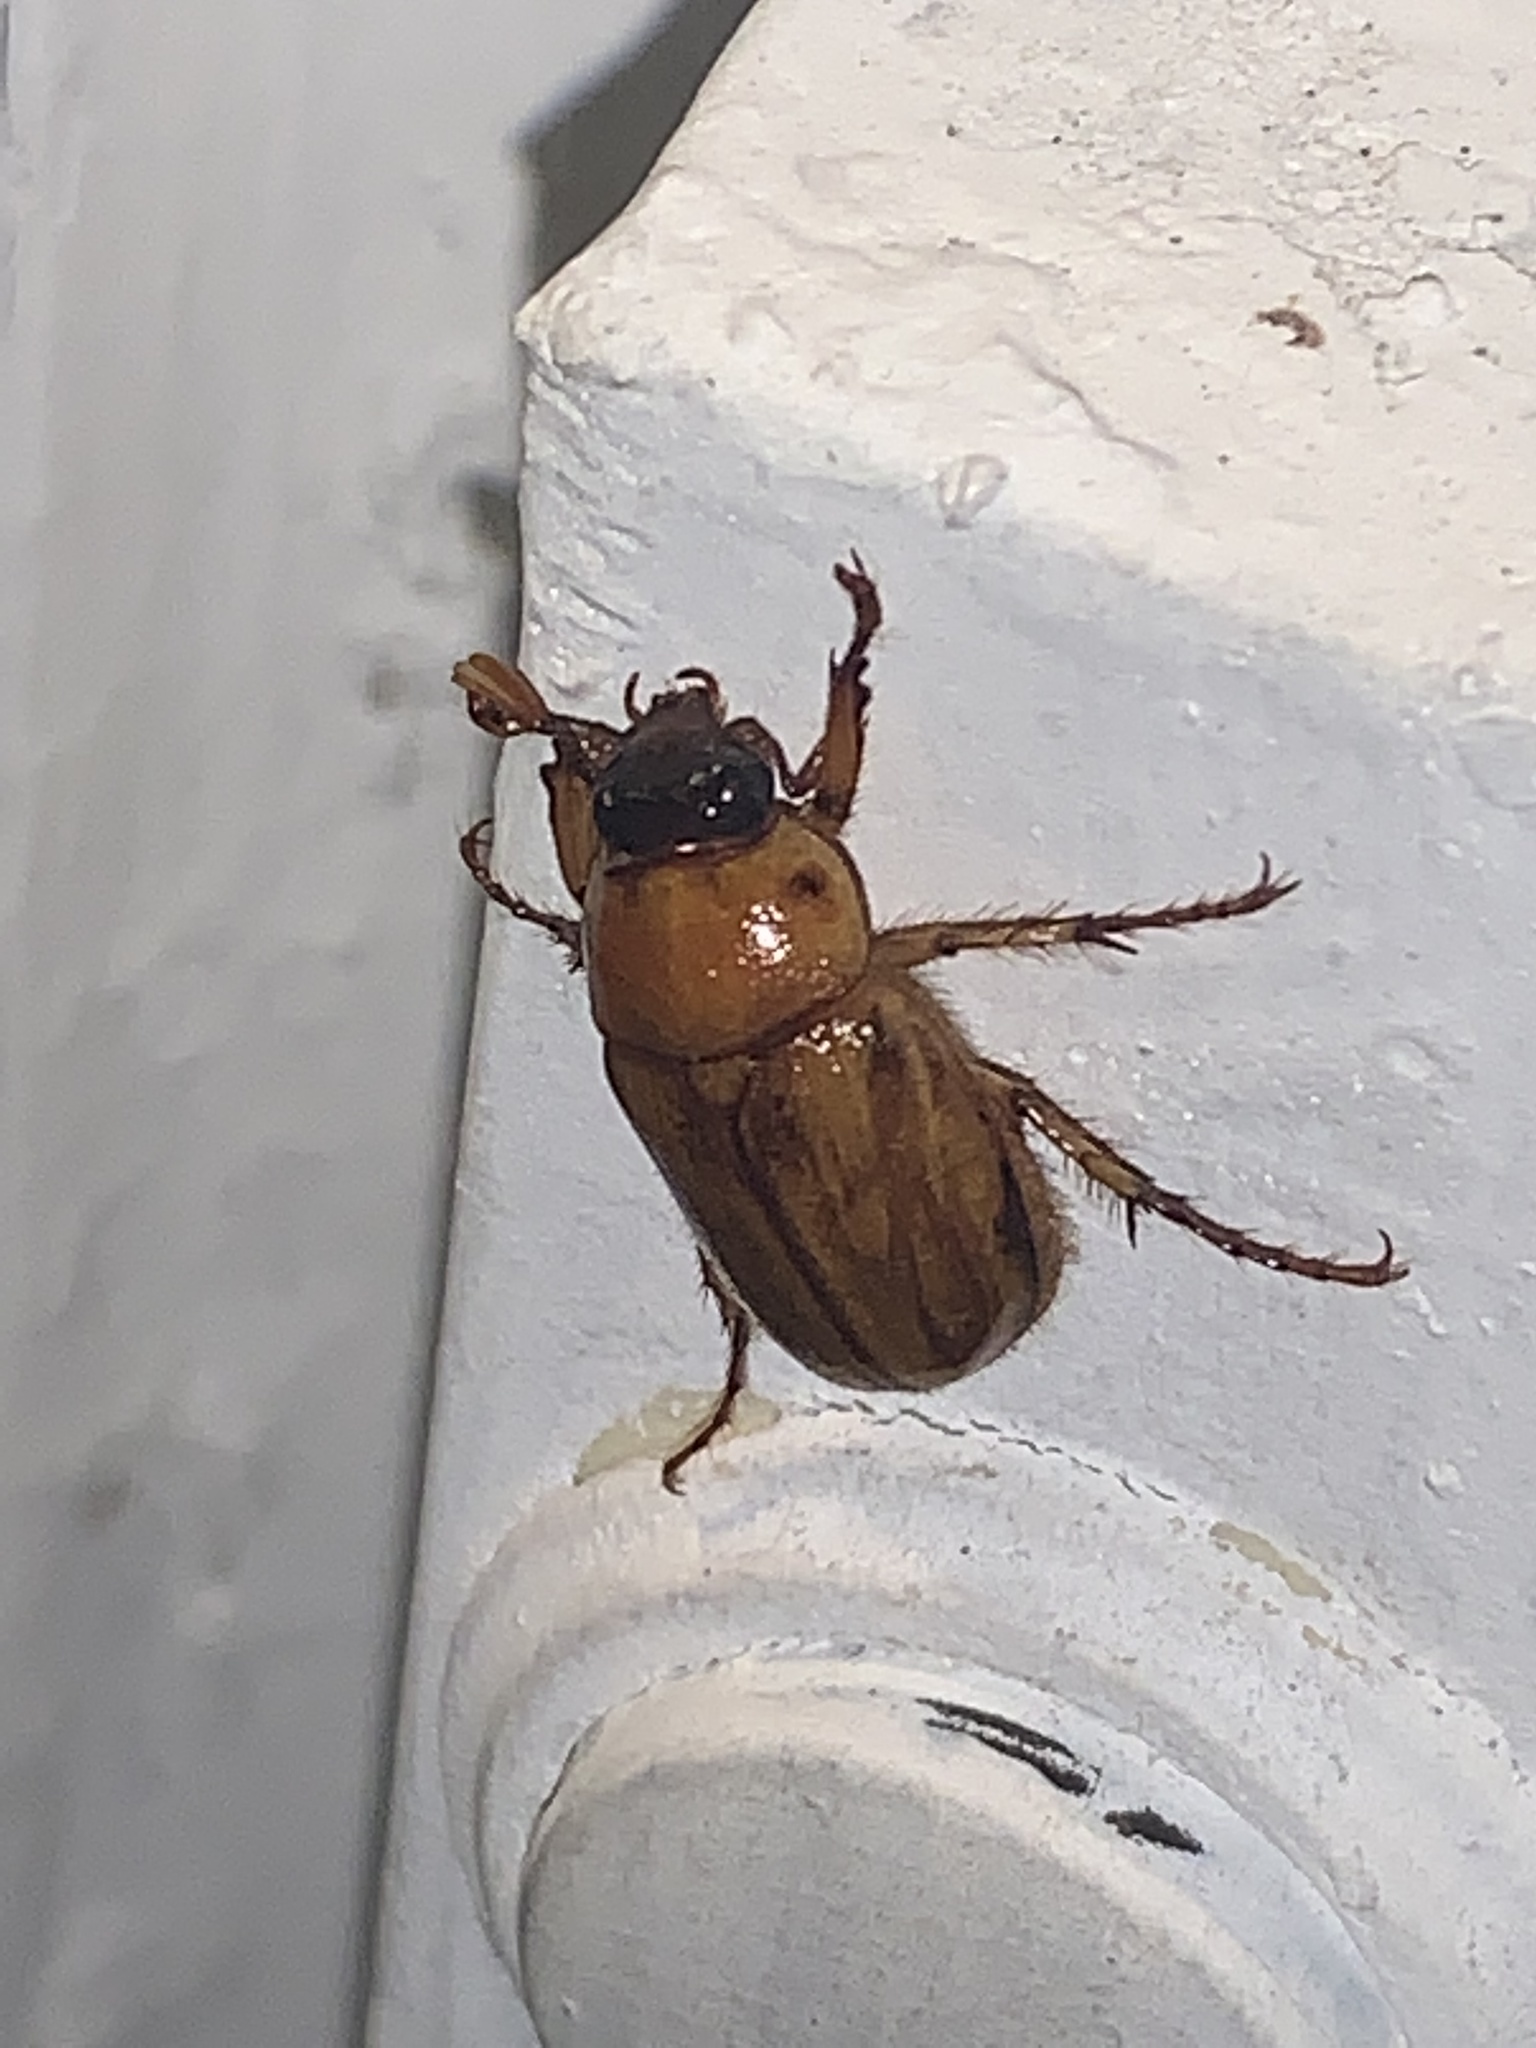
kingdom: Animalia
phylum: Arthropoda
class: Insecta
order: Coleoptera
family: Scarabaeidae
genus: Cyclocephala
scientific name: Cyclocephala
